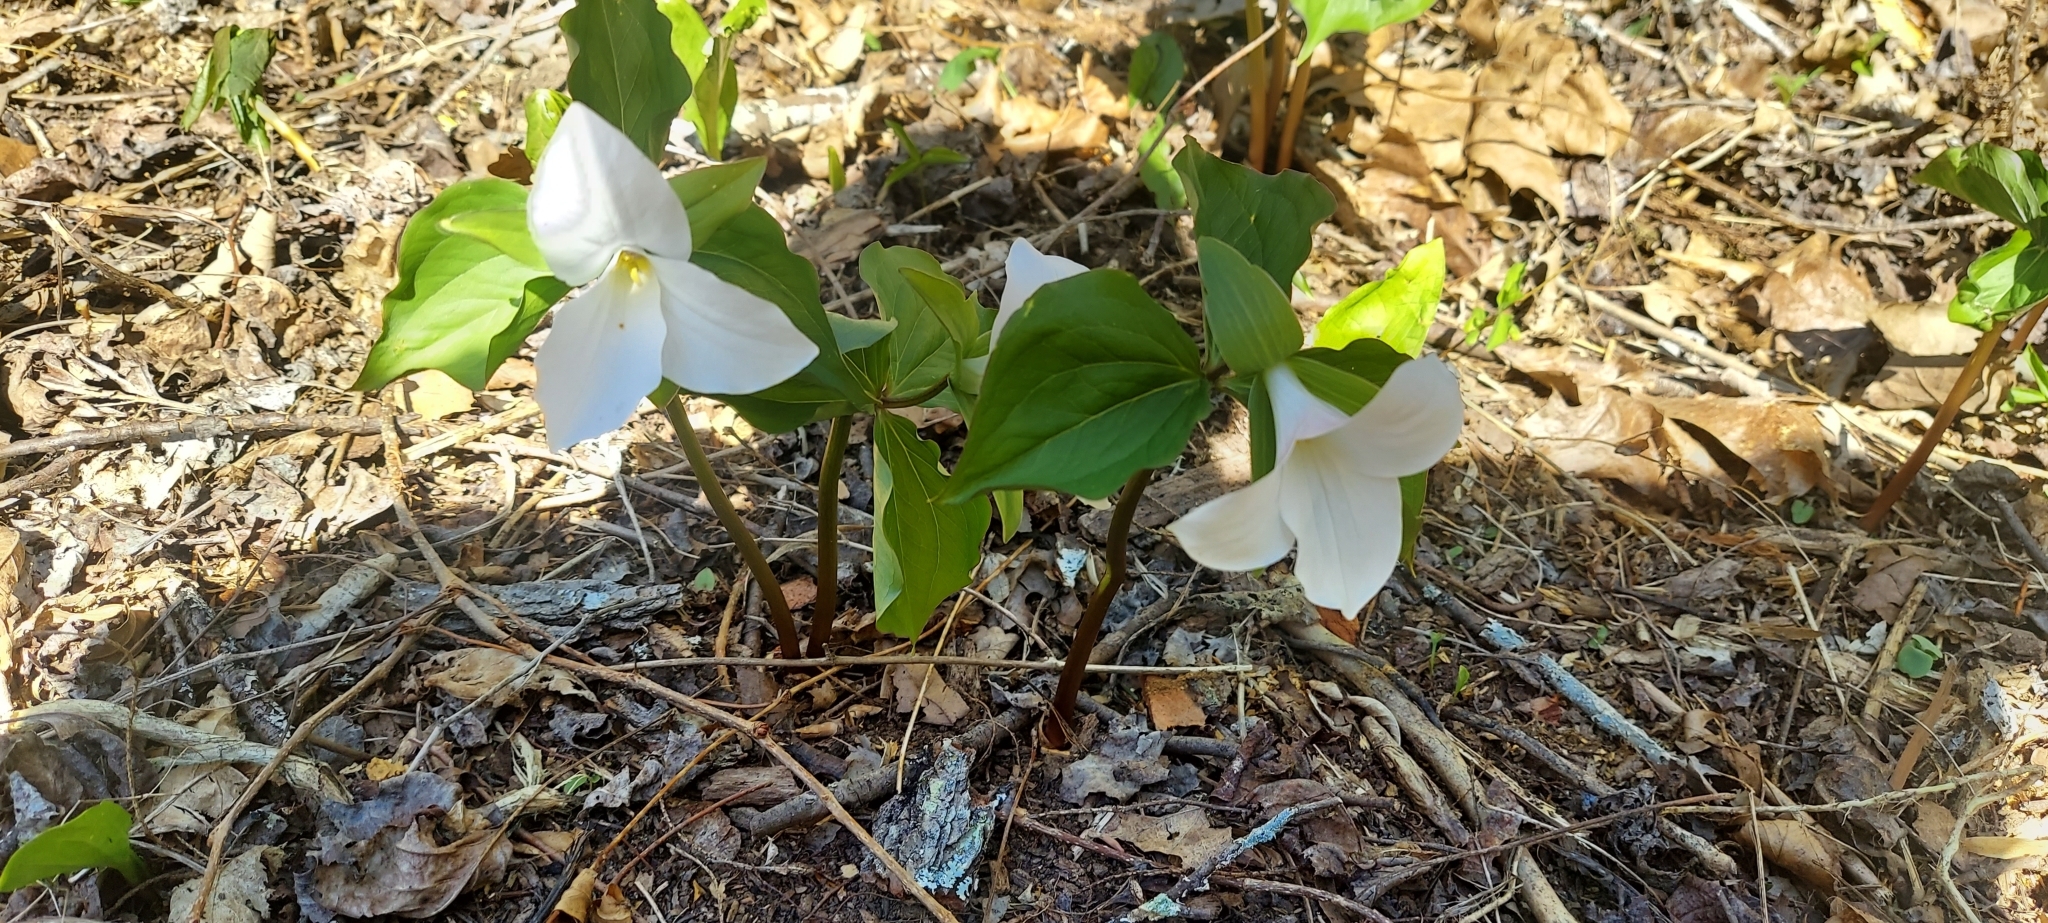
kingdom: Plantae
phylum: Tracheophyta
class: Liliopsida
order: Liliales
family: Melanthiaceae
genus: Trillium
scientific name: Trillium grandiflorum
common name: Great white trillium
